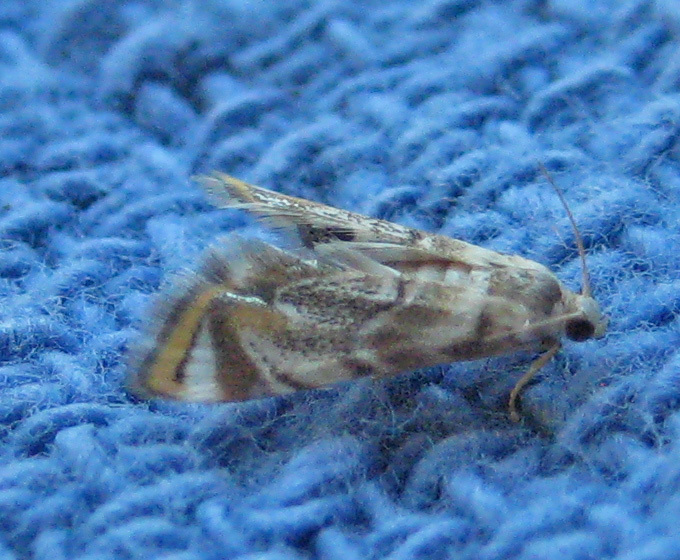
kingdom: Animalia
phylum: Arthropoda
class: Insecta
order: Lepidoptera
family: Crambidae
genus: Eoparargyractis
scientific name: Eoparargyractis irroratalis
